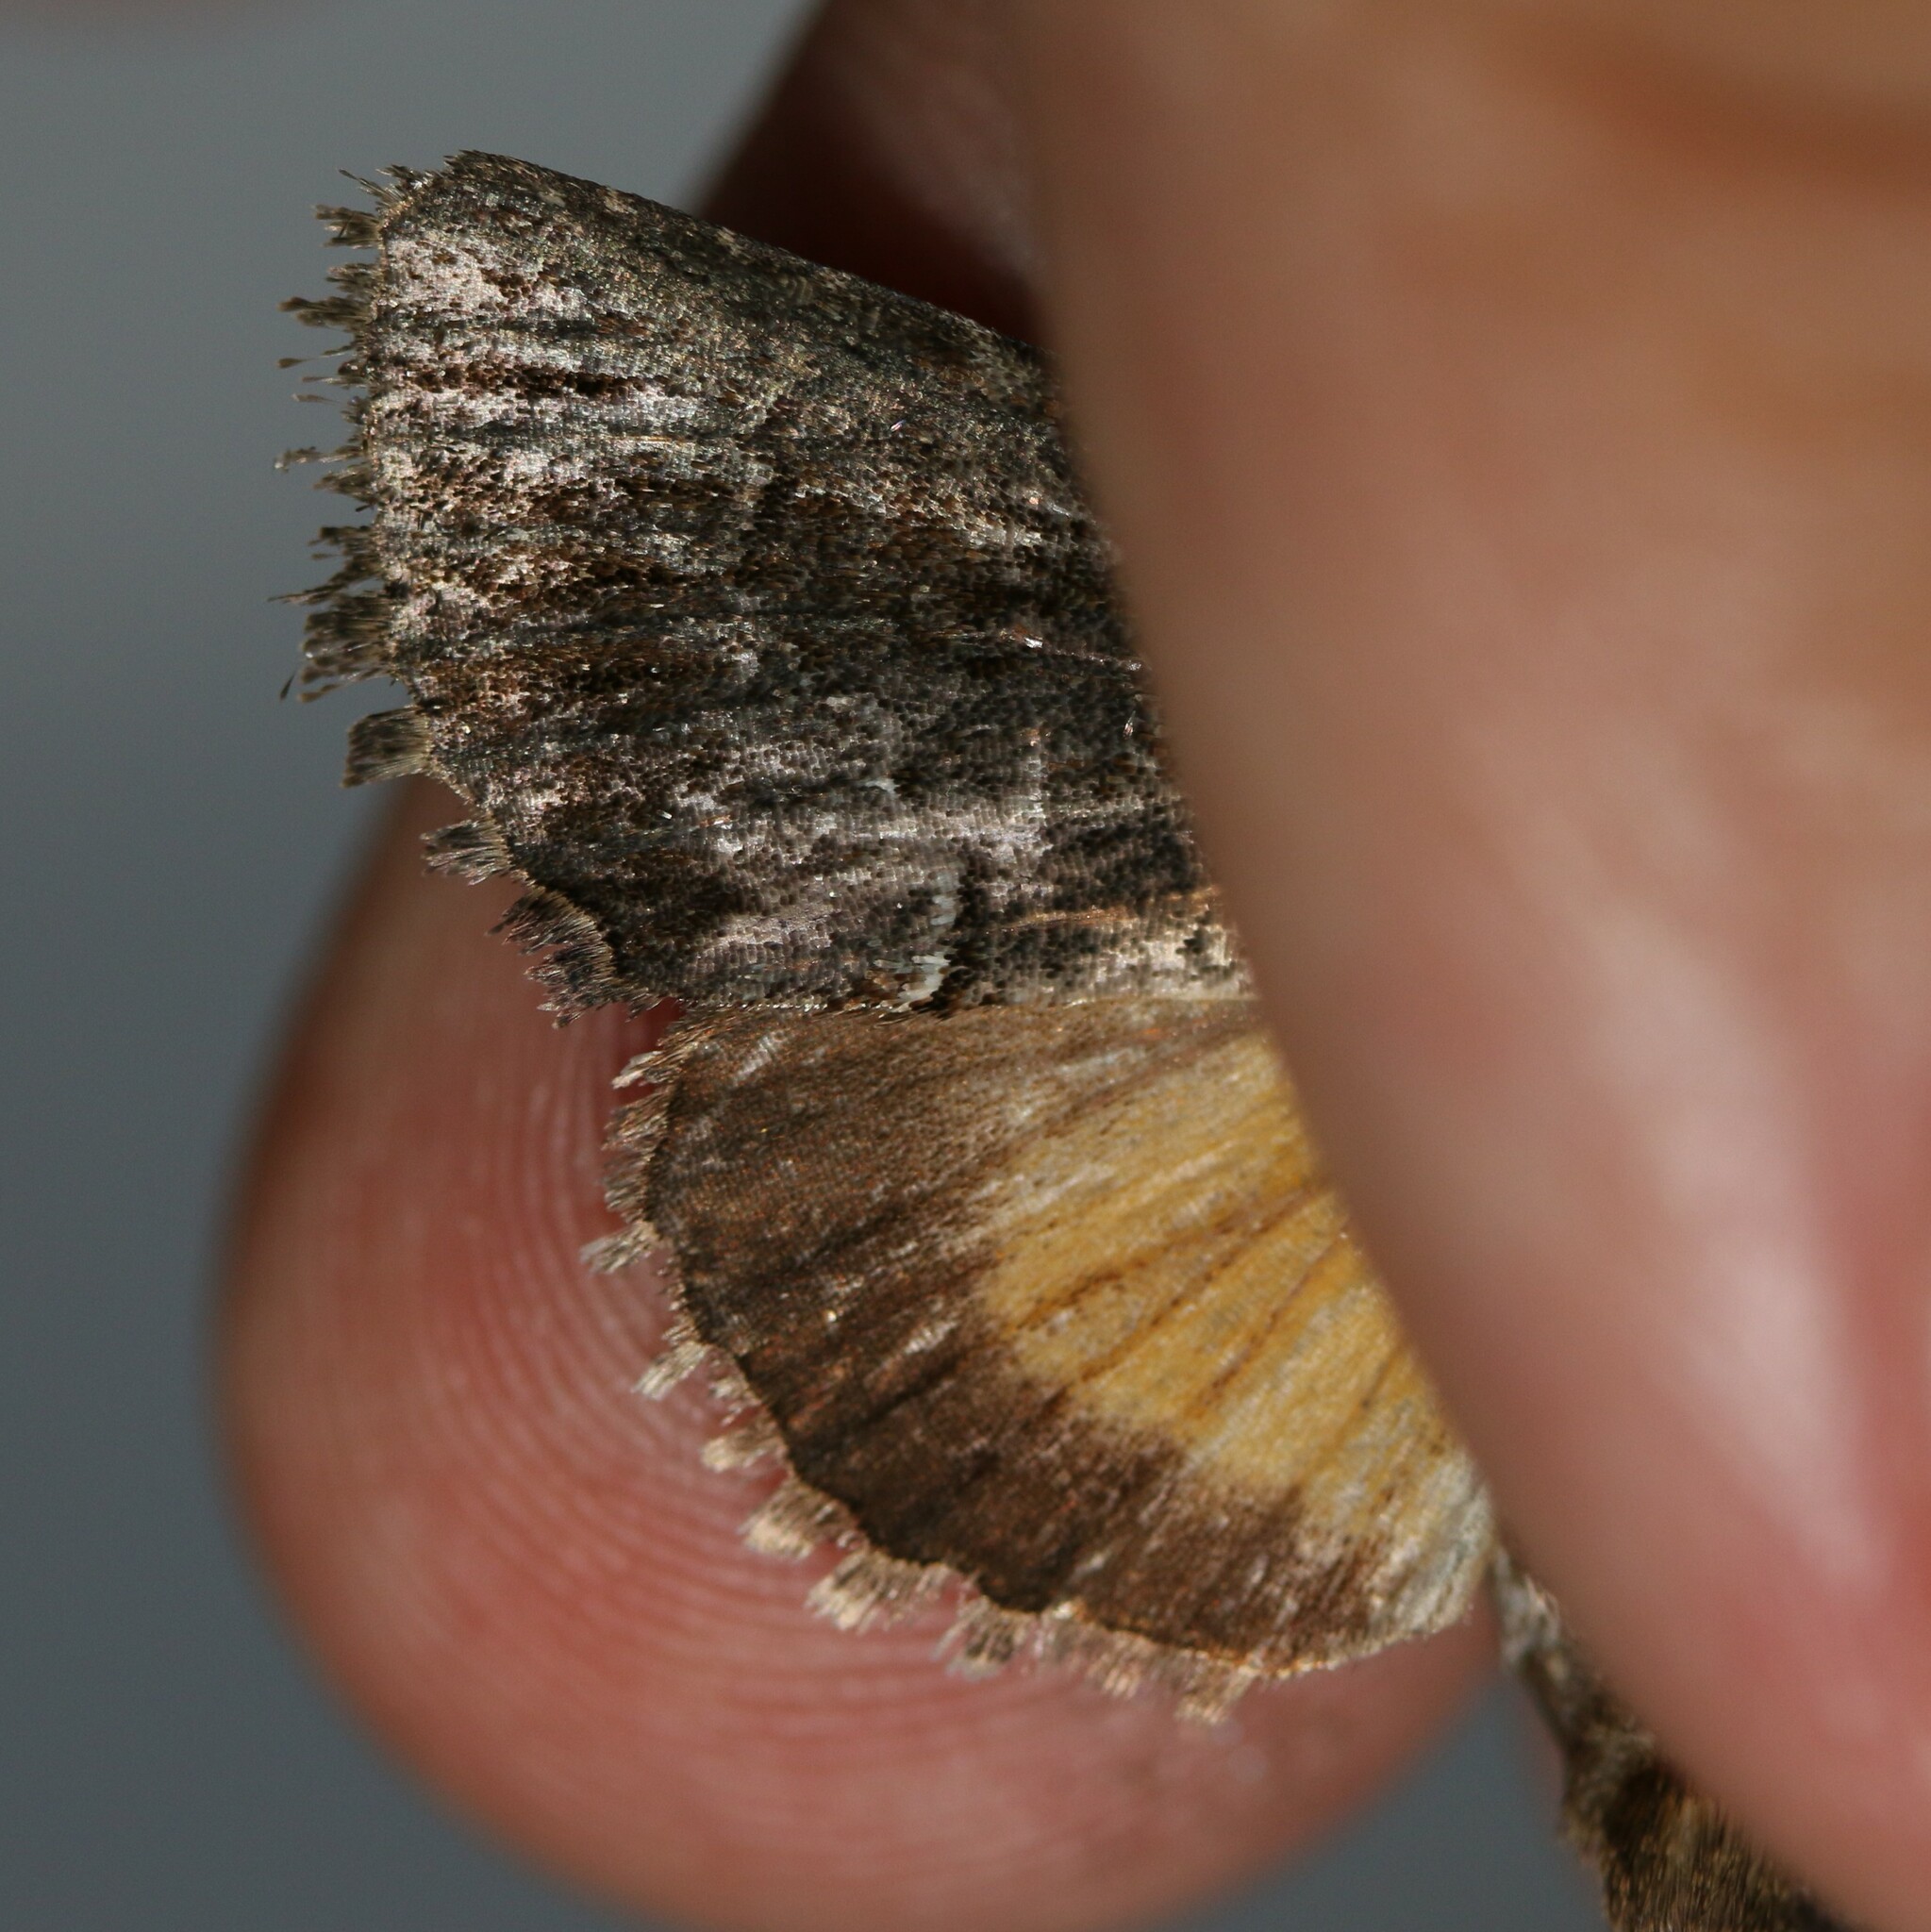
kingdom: Animalia
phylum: Arthropoda
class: Insecta
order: Lepidoptera
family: Noctuidae
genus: Thalpophila
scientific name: Thalpophila matura
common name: Straw underwing
